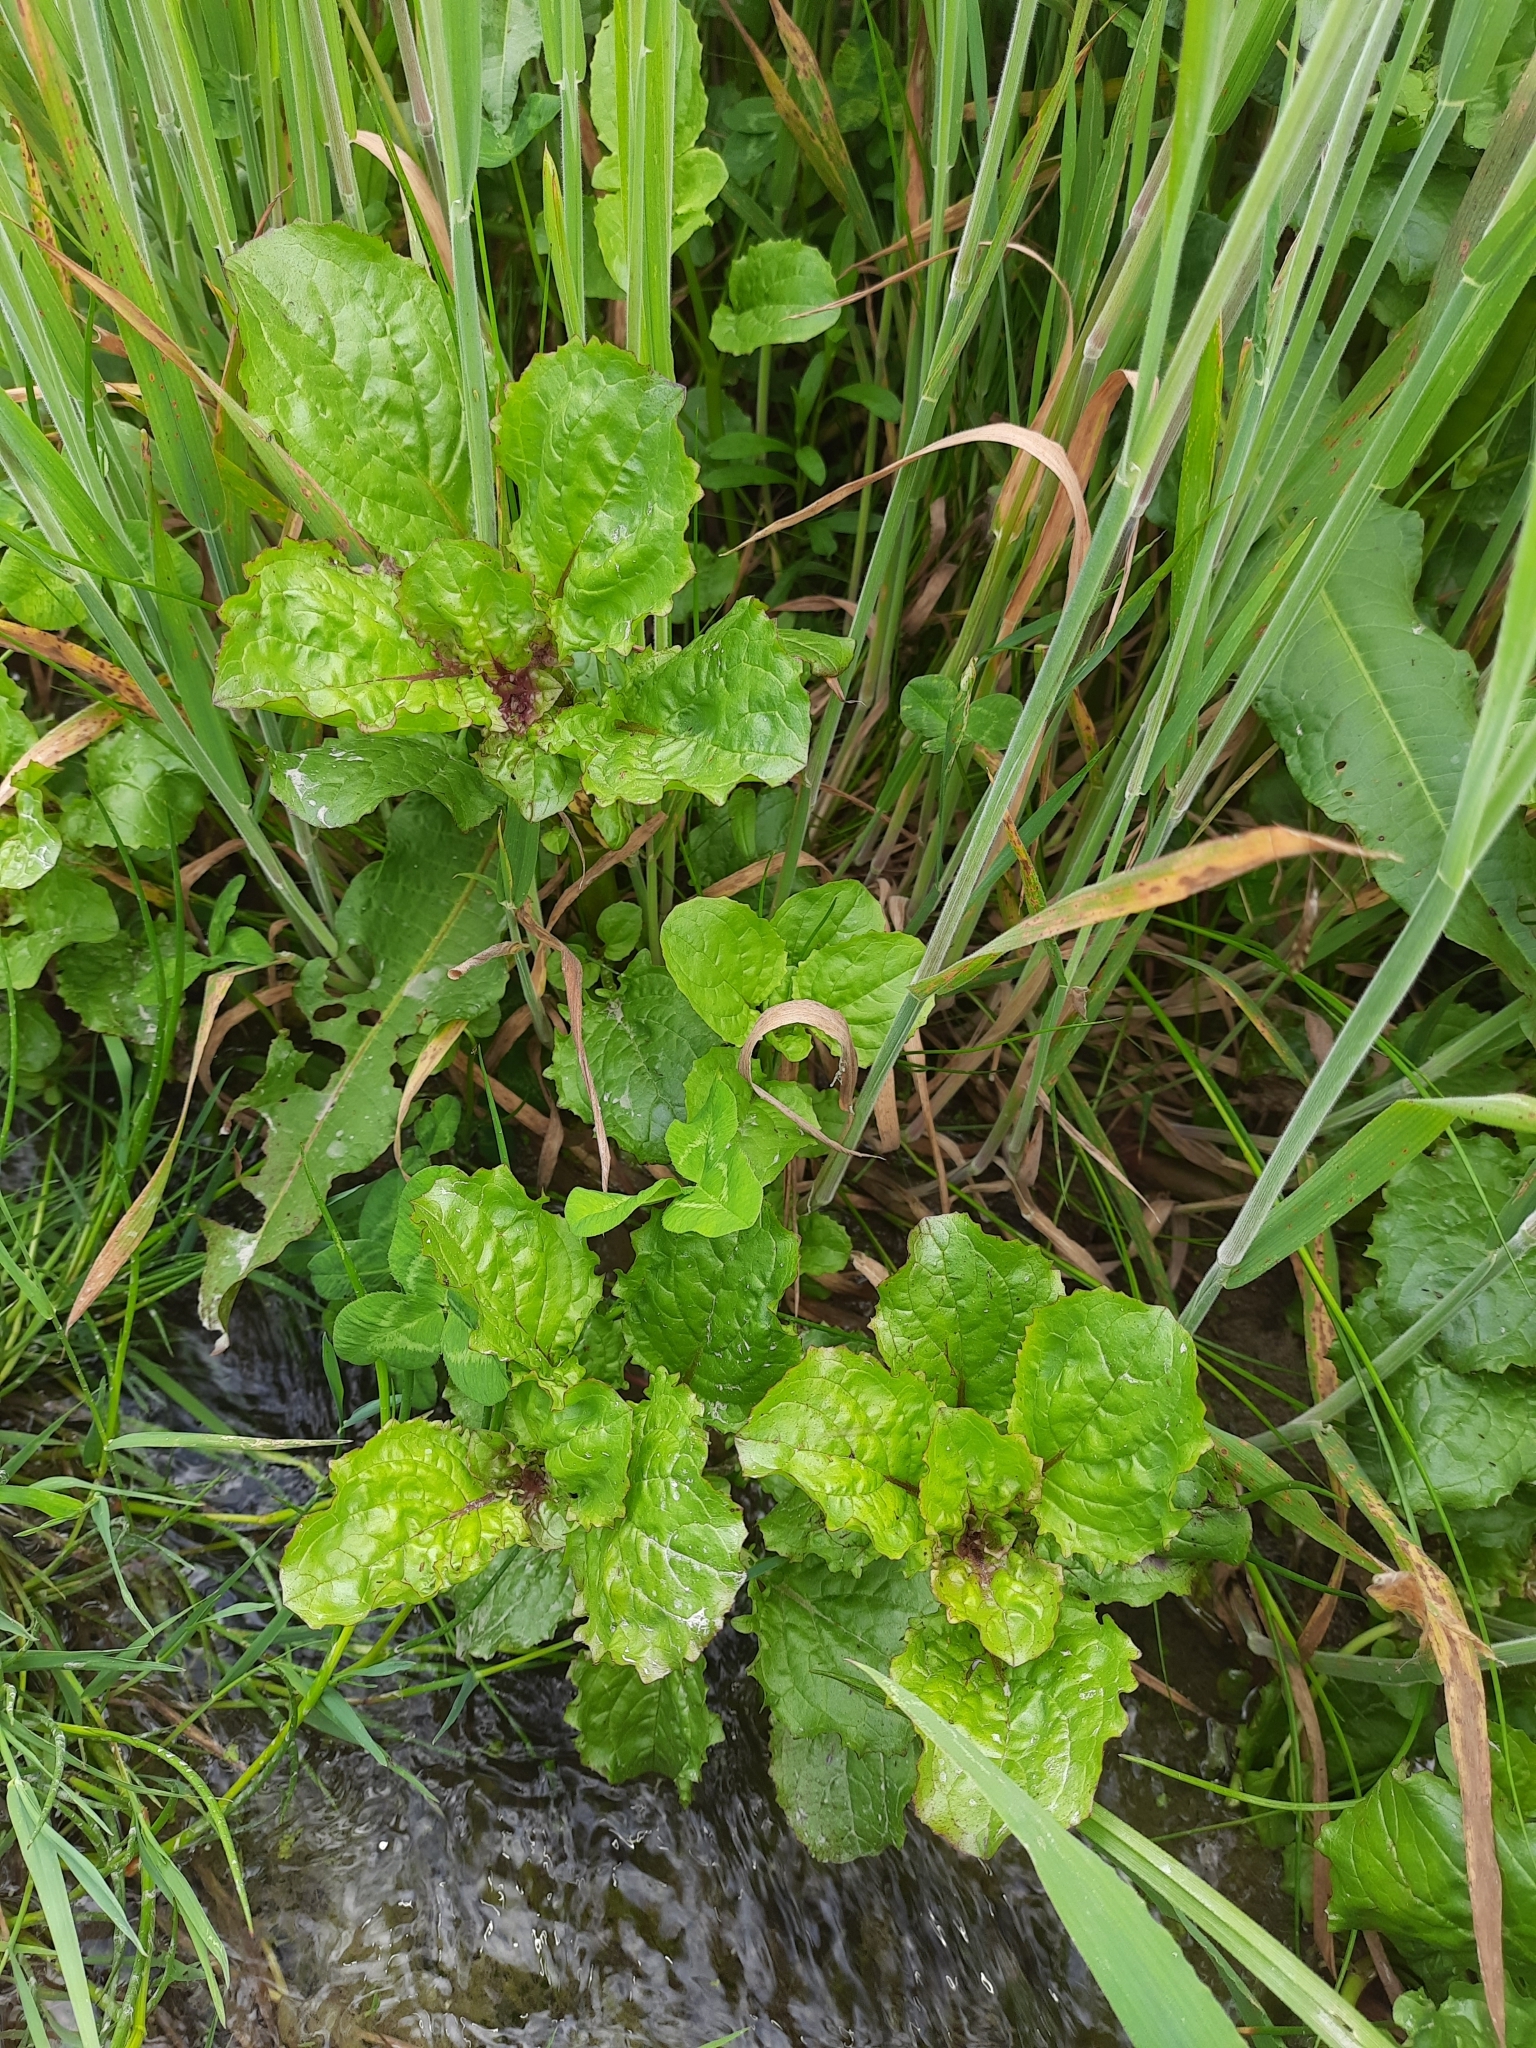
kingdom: Plantae
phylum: Tracheophyta
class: Magnoliopsida
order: Lamiales
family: Phrymaceae
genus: Erythranthe
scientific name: Erythranthe guttata
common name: Monkeyflower
